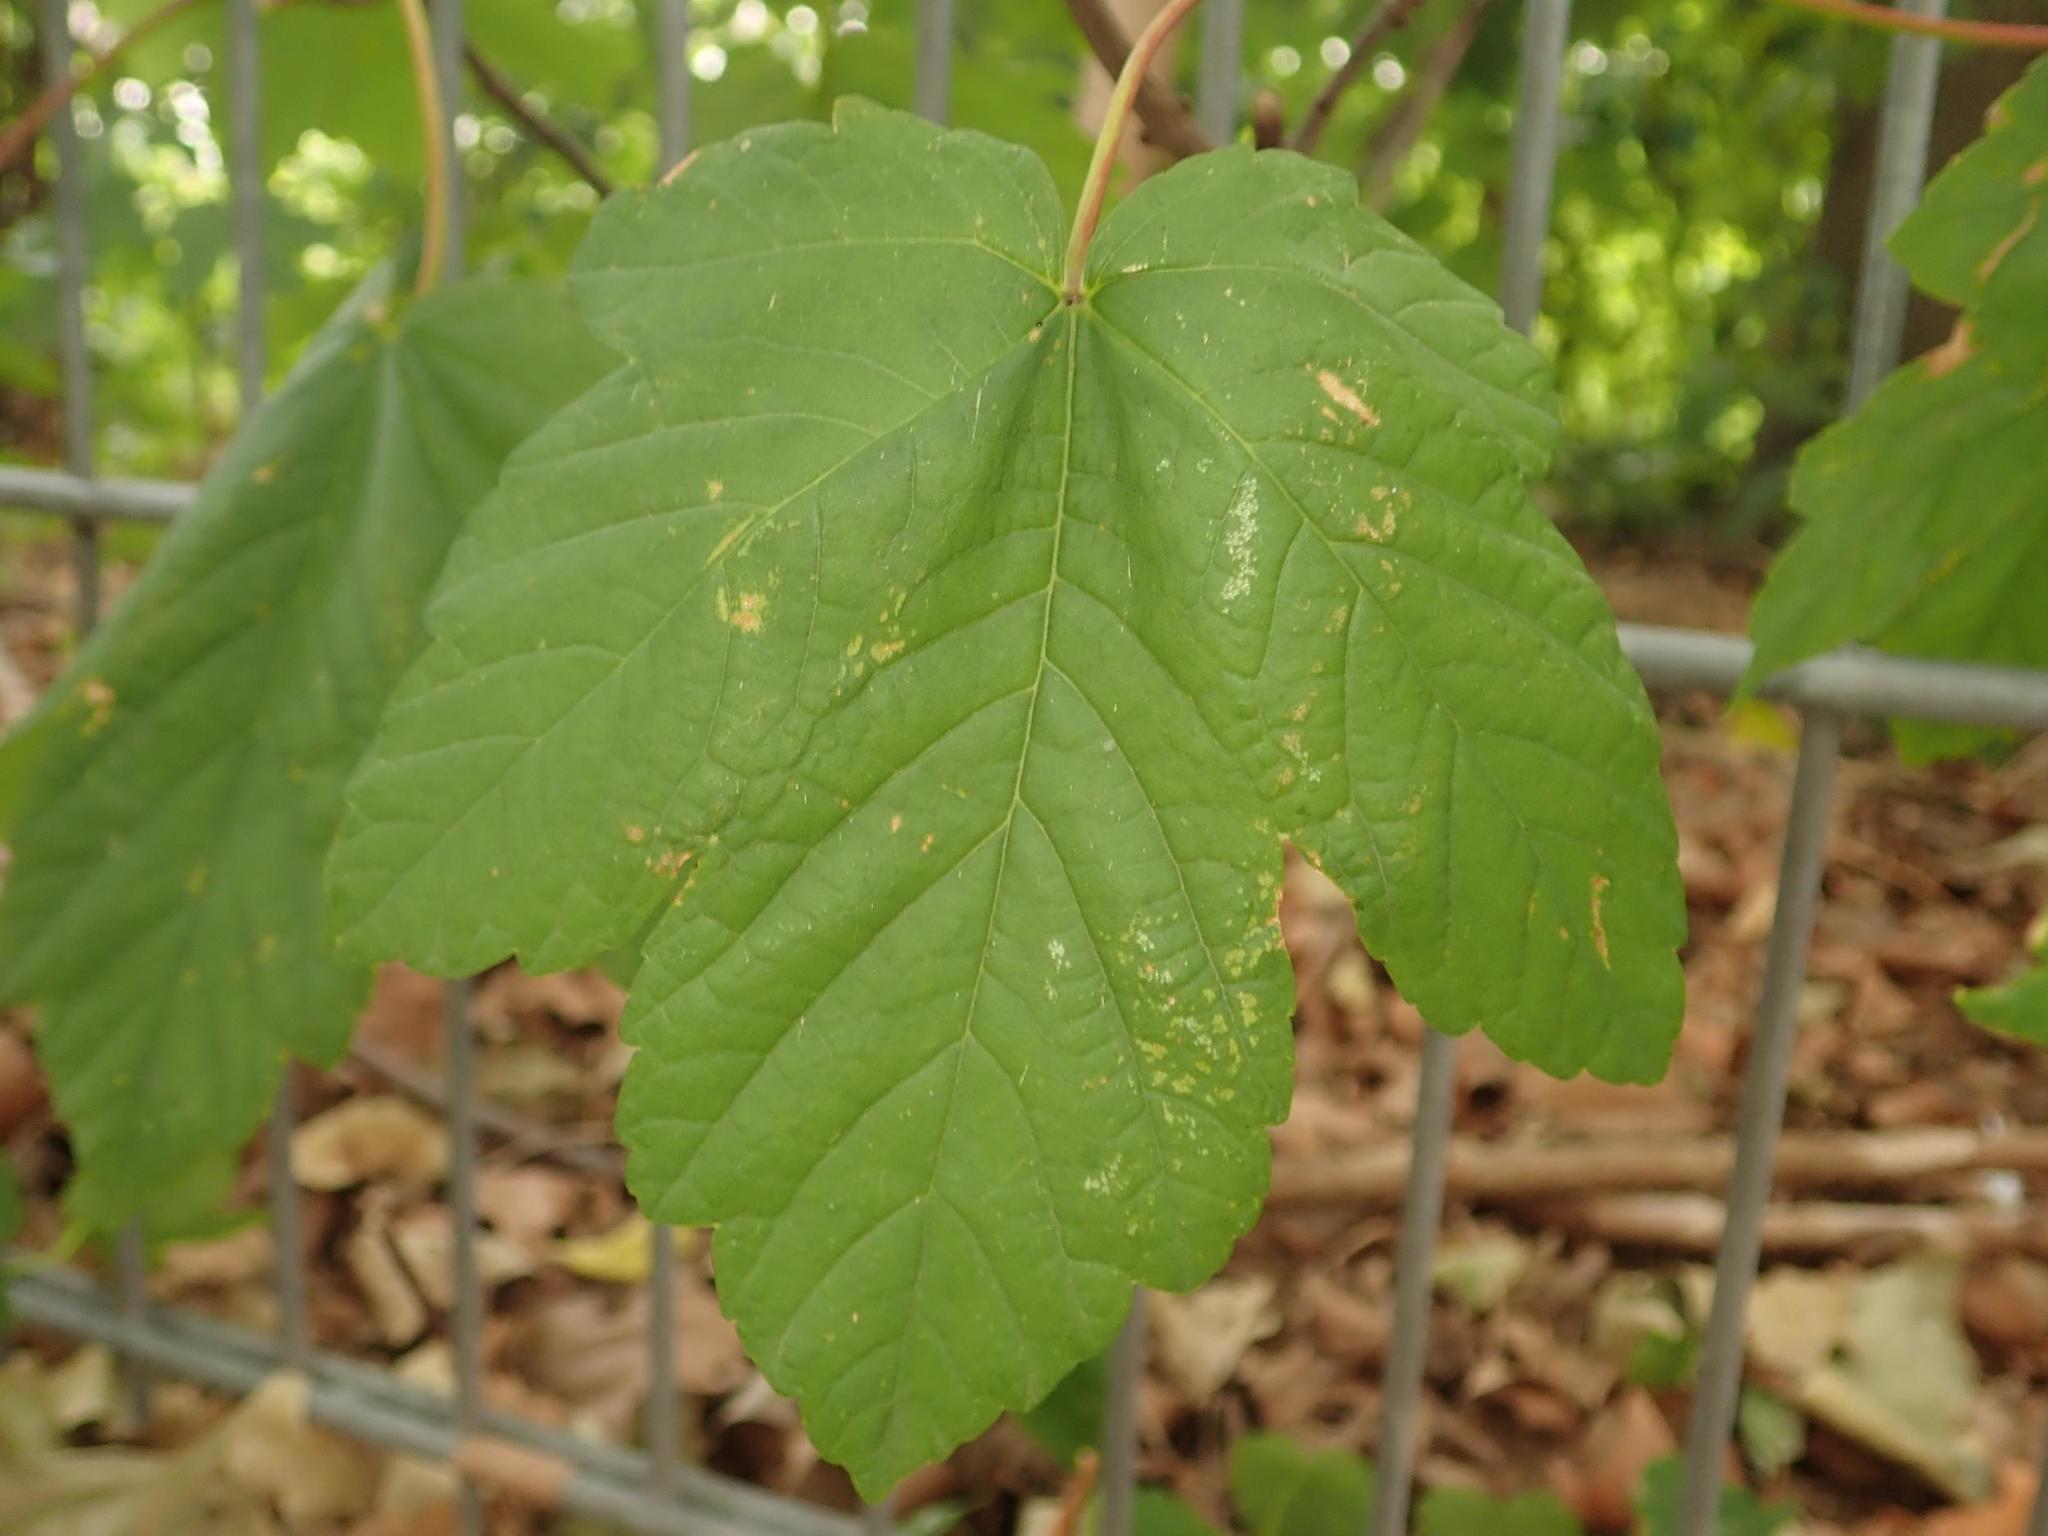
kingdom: Plantae
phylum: Tracheophyta
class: Magnoliopsida
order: Sapindales
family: Sapindaceae
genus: Acer
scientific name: Acer pseudoplatanus
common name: Sycamore
